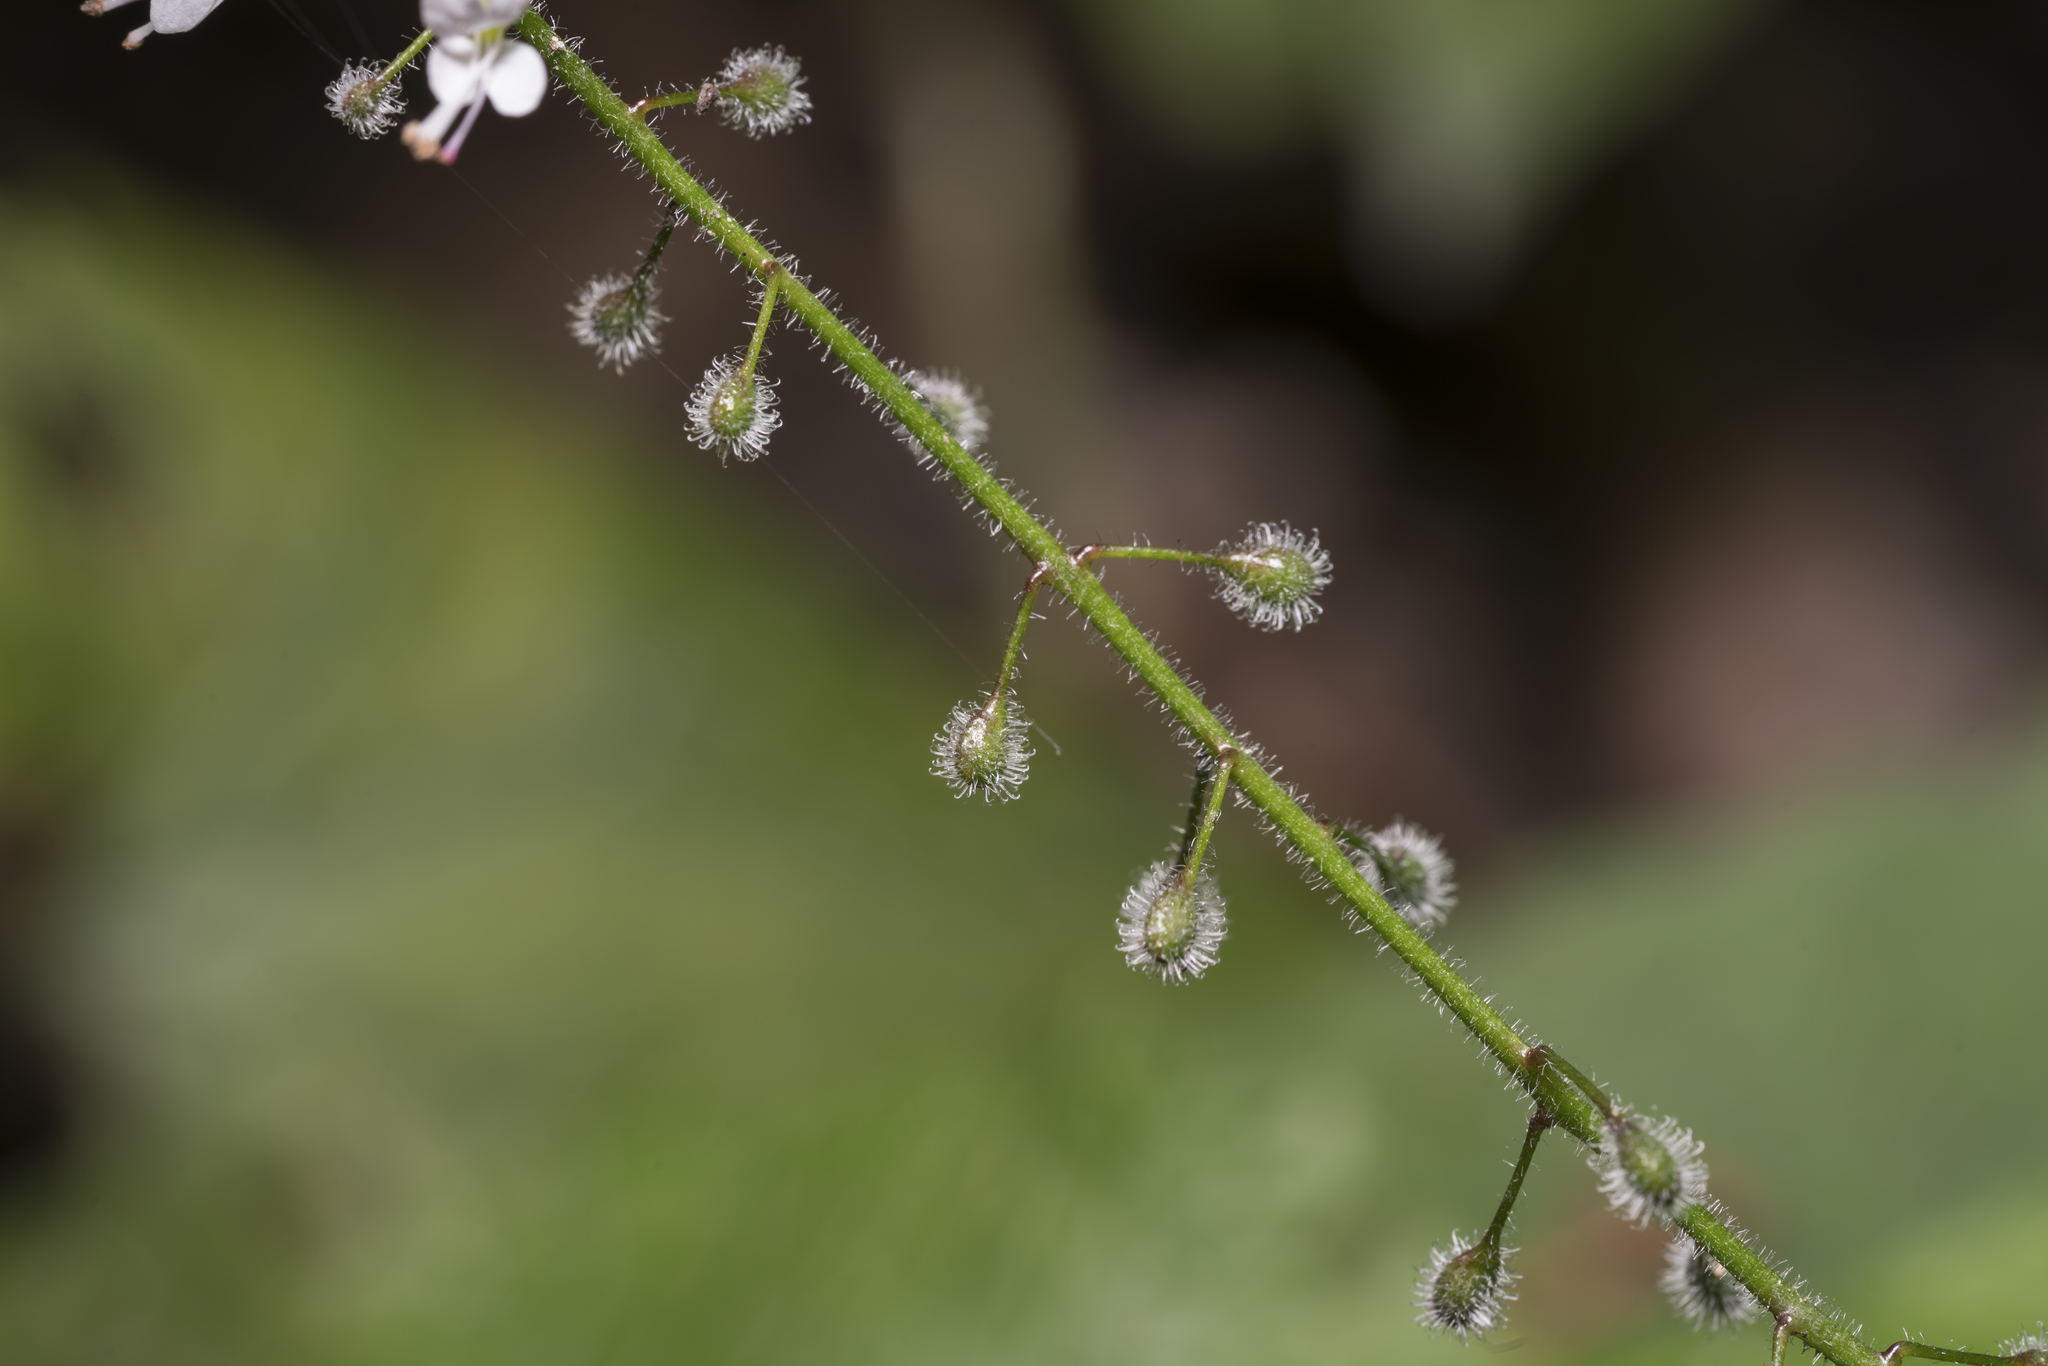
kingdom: Plantae
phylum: Tracheophyta
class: Magnoliopsida
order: Myrtales
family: Onagraceae
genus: Circaea
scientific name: Circaea lutetiana
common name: Enchanter's-nightshade
